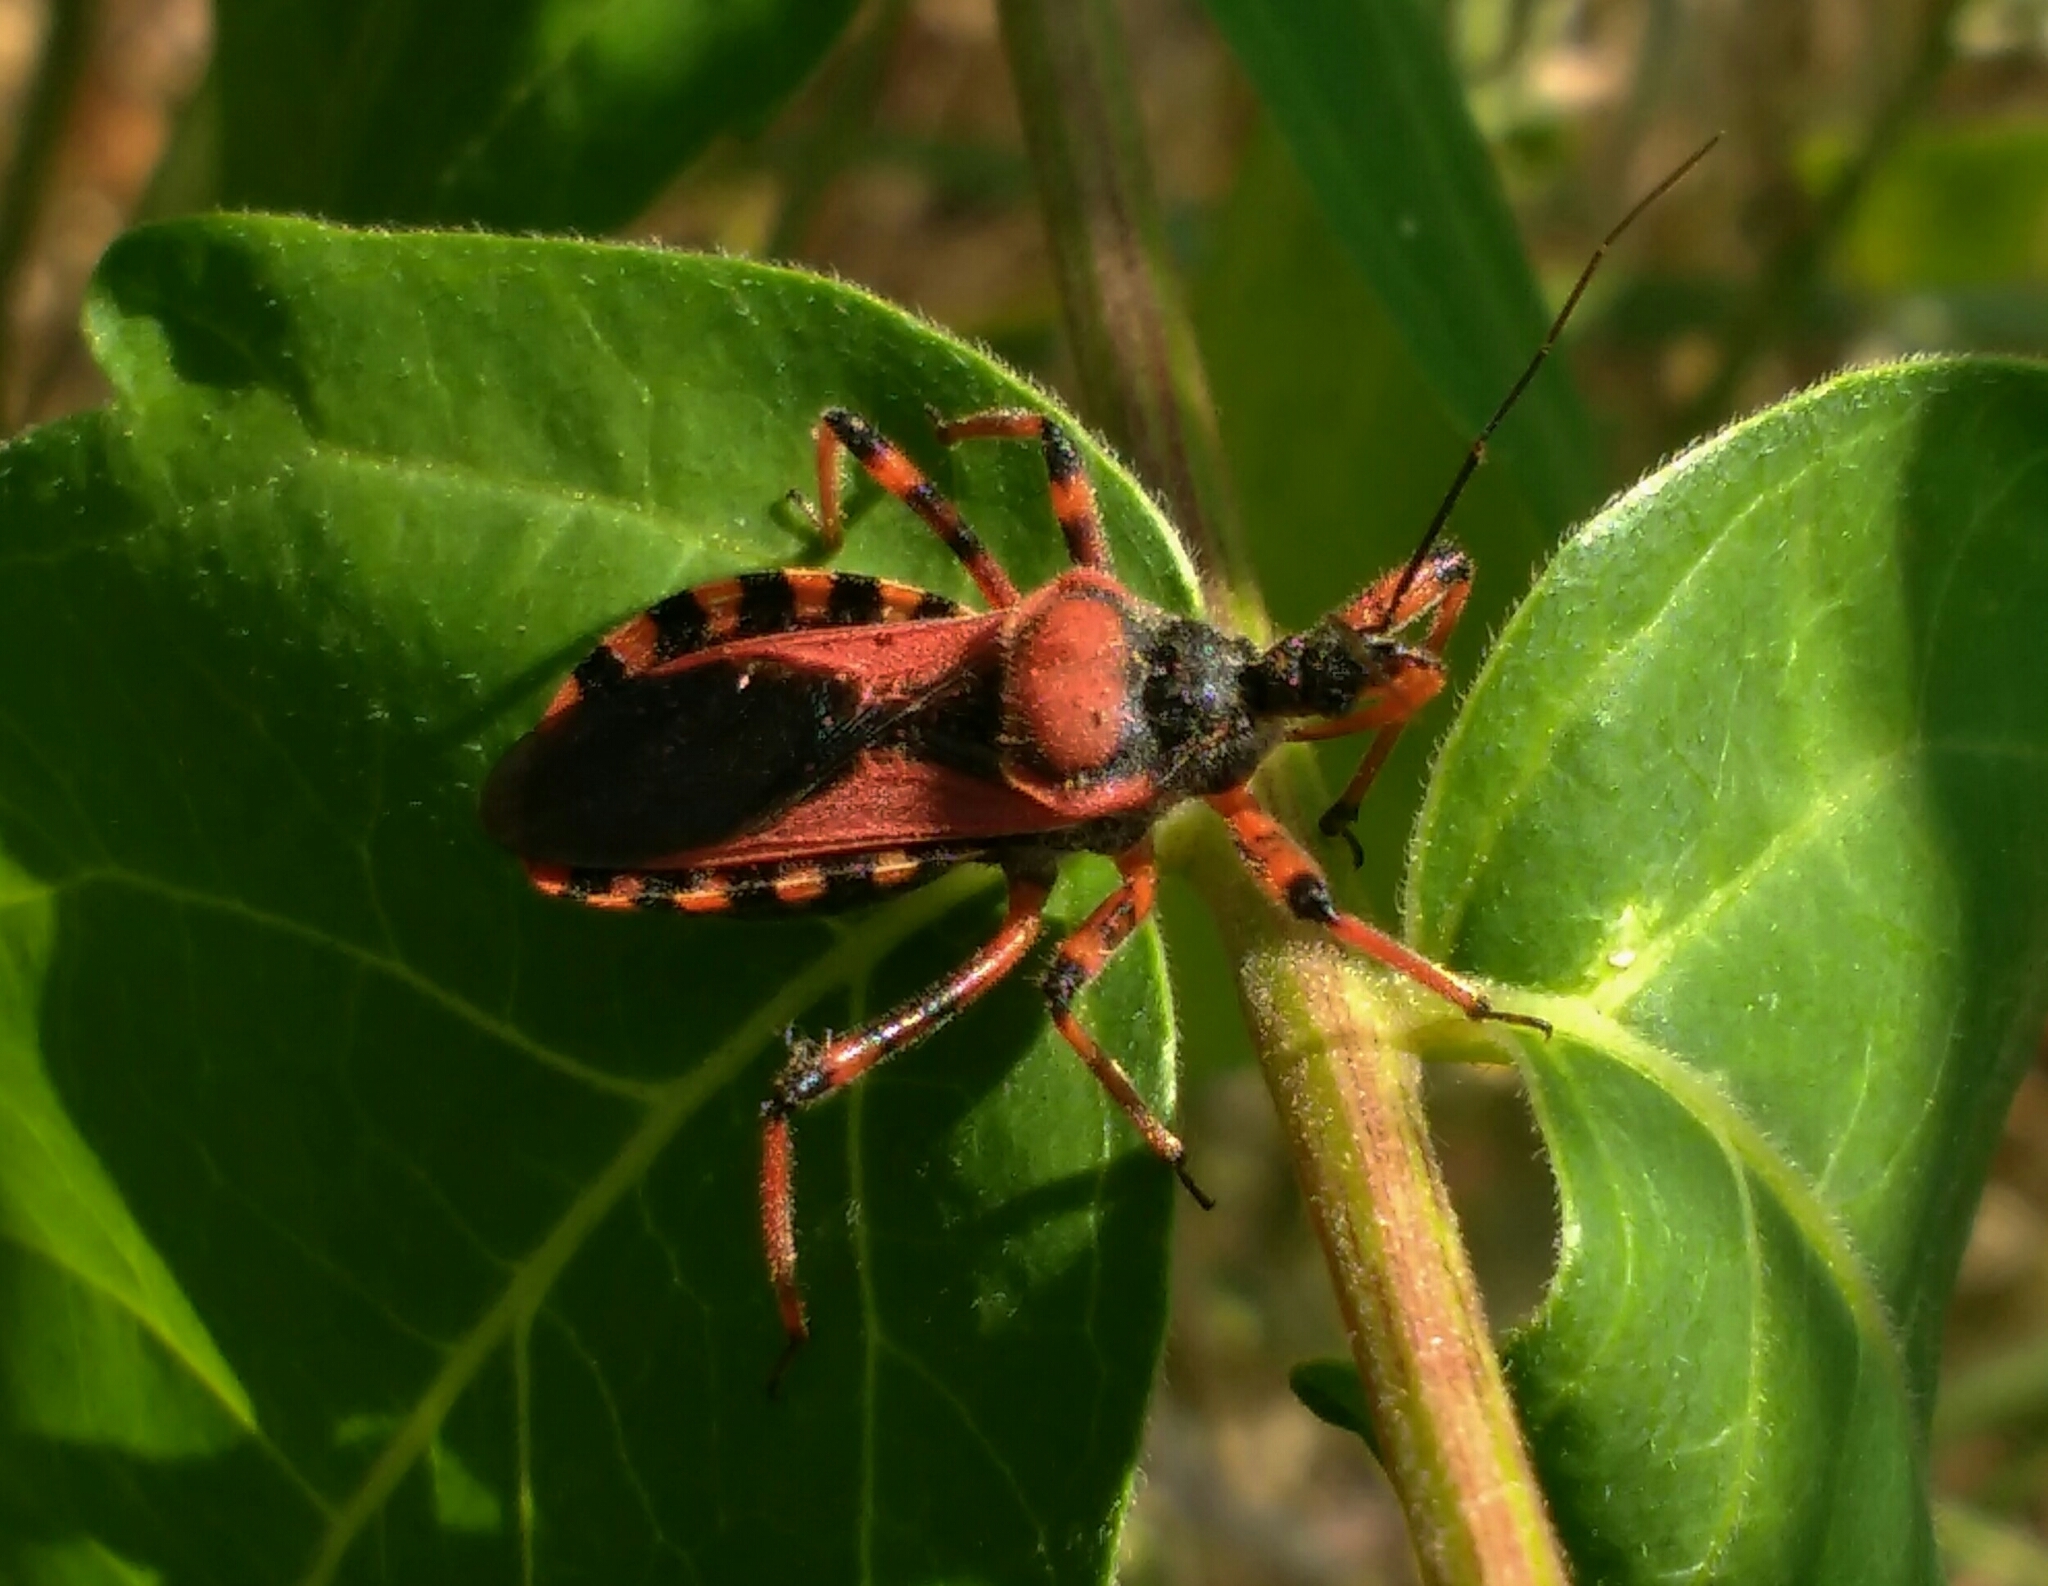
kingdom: Animalia
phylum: Arthropoda
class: Insecta
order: Hemiptera
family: Reduviidae
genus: Rhynocoris
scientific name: Rhynocoris iracundus
